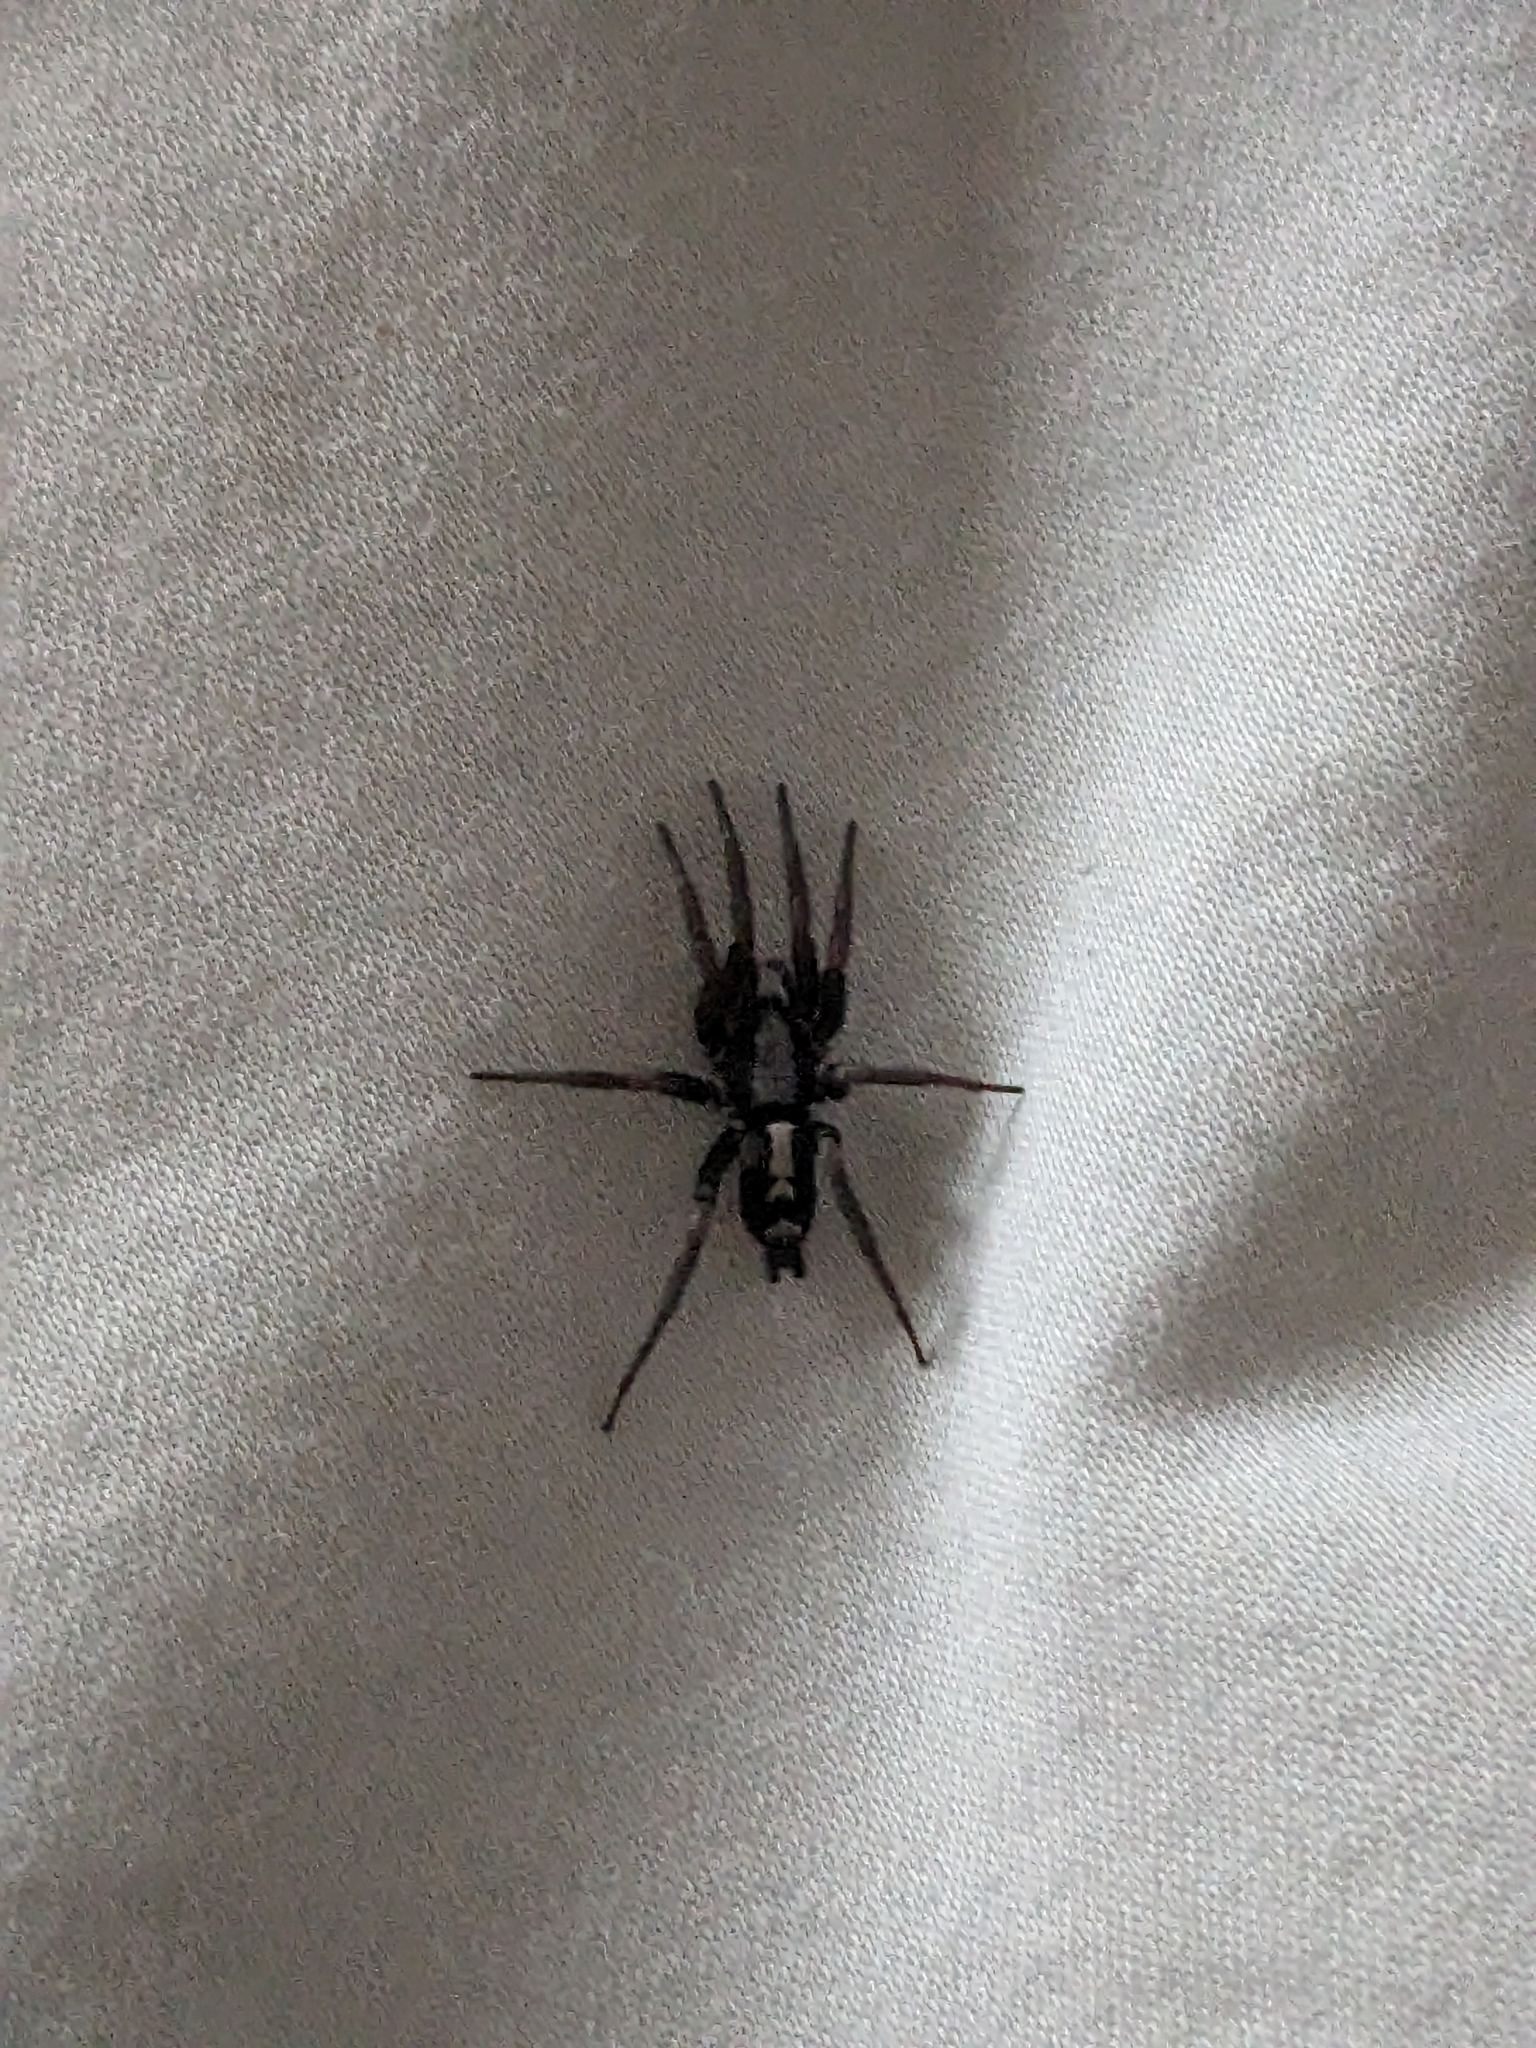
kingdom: Animalia
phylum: Arthropoda
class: Arachnida
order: Araneae
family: Gnaphosidae
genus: Herpyllus
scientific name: Herpyllus ecclesiasticus
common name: Eastern parson spider
